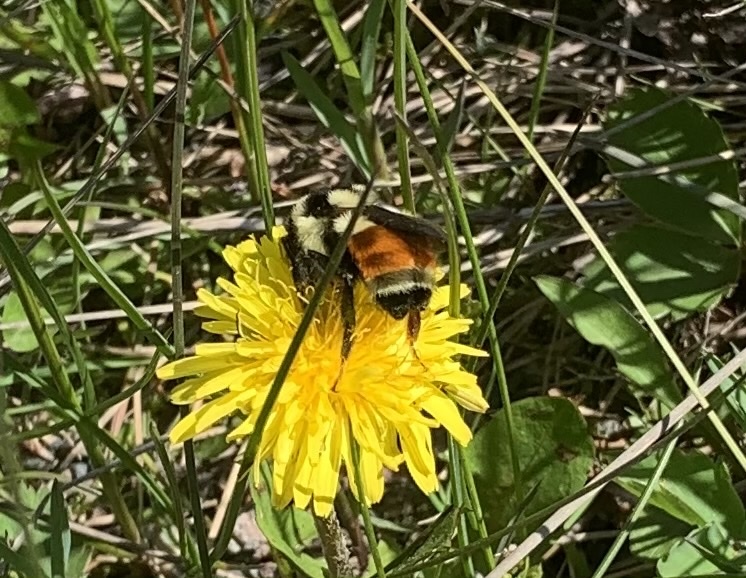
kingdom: Animalia
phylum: Arthropoda
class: Insecta
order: Hymenoptera
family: Apidae
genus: Bombus
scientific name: Bombus ternarius
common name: Tri-colored bumble bee
